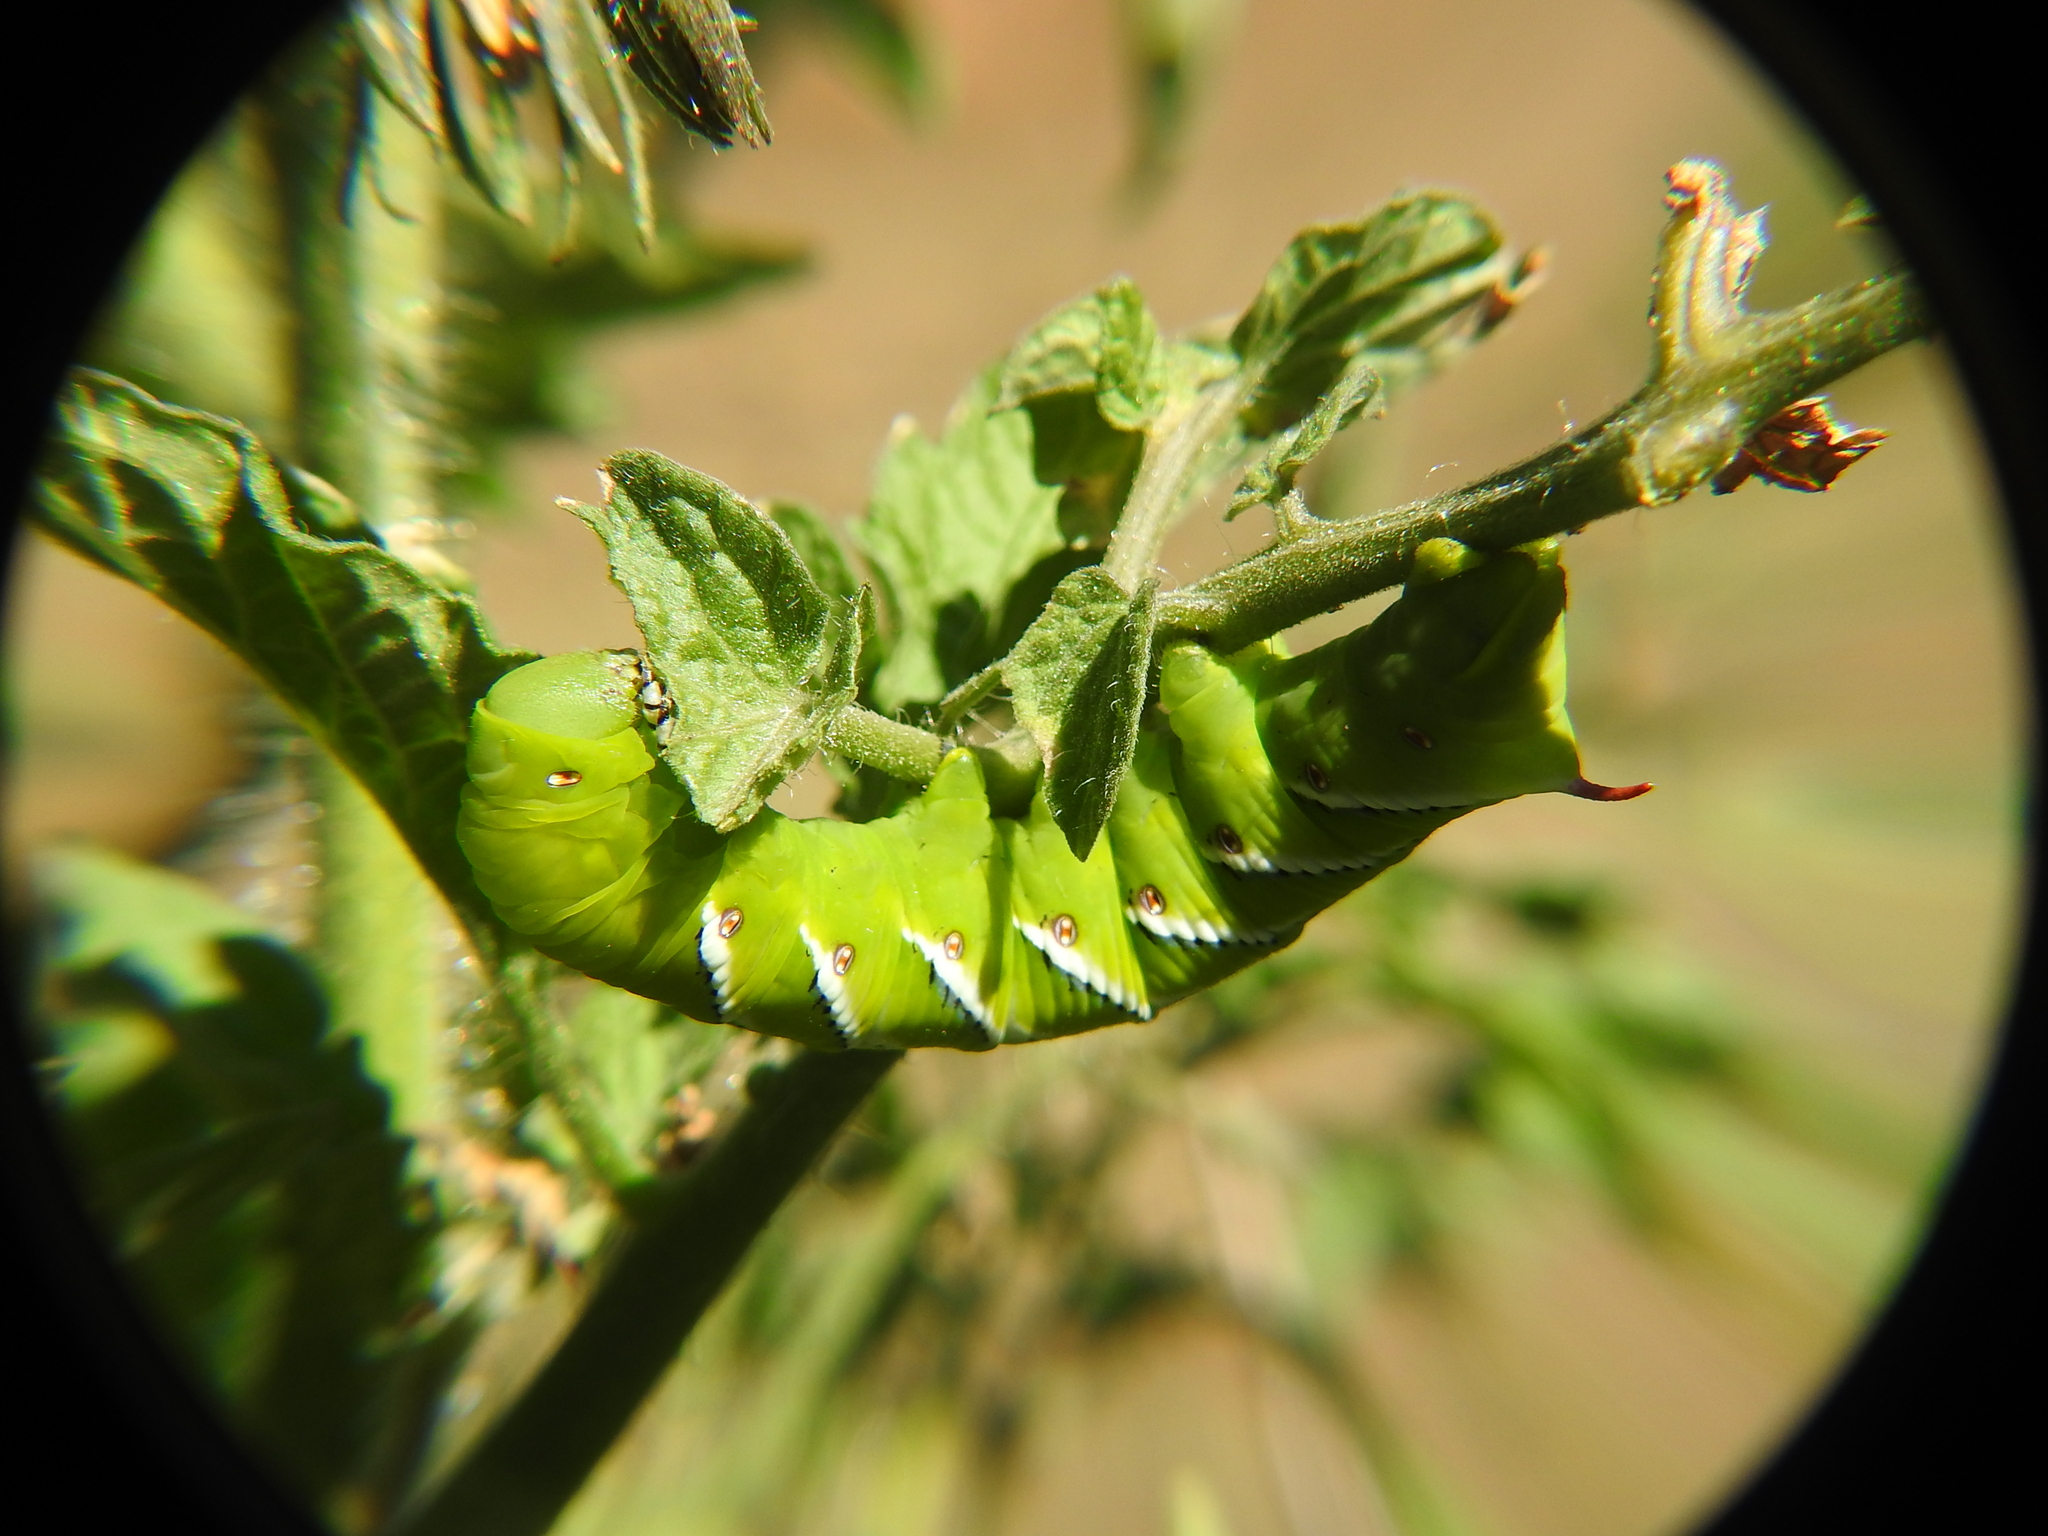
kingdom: Animalia
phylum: Arthropoda
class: Insecta
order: Lepidoptera
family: Sphingidae
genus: Manduca
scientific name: Manduca sexta
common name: Carolina sphinx
